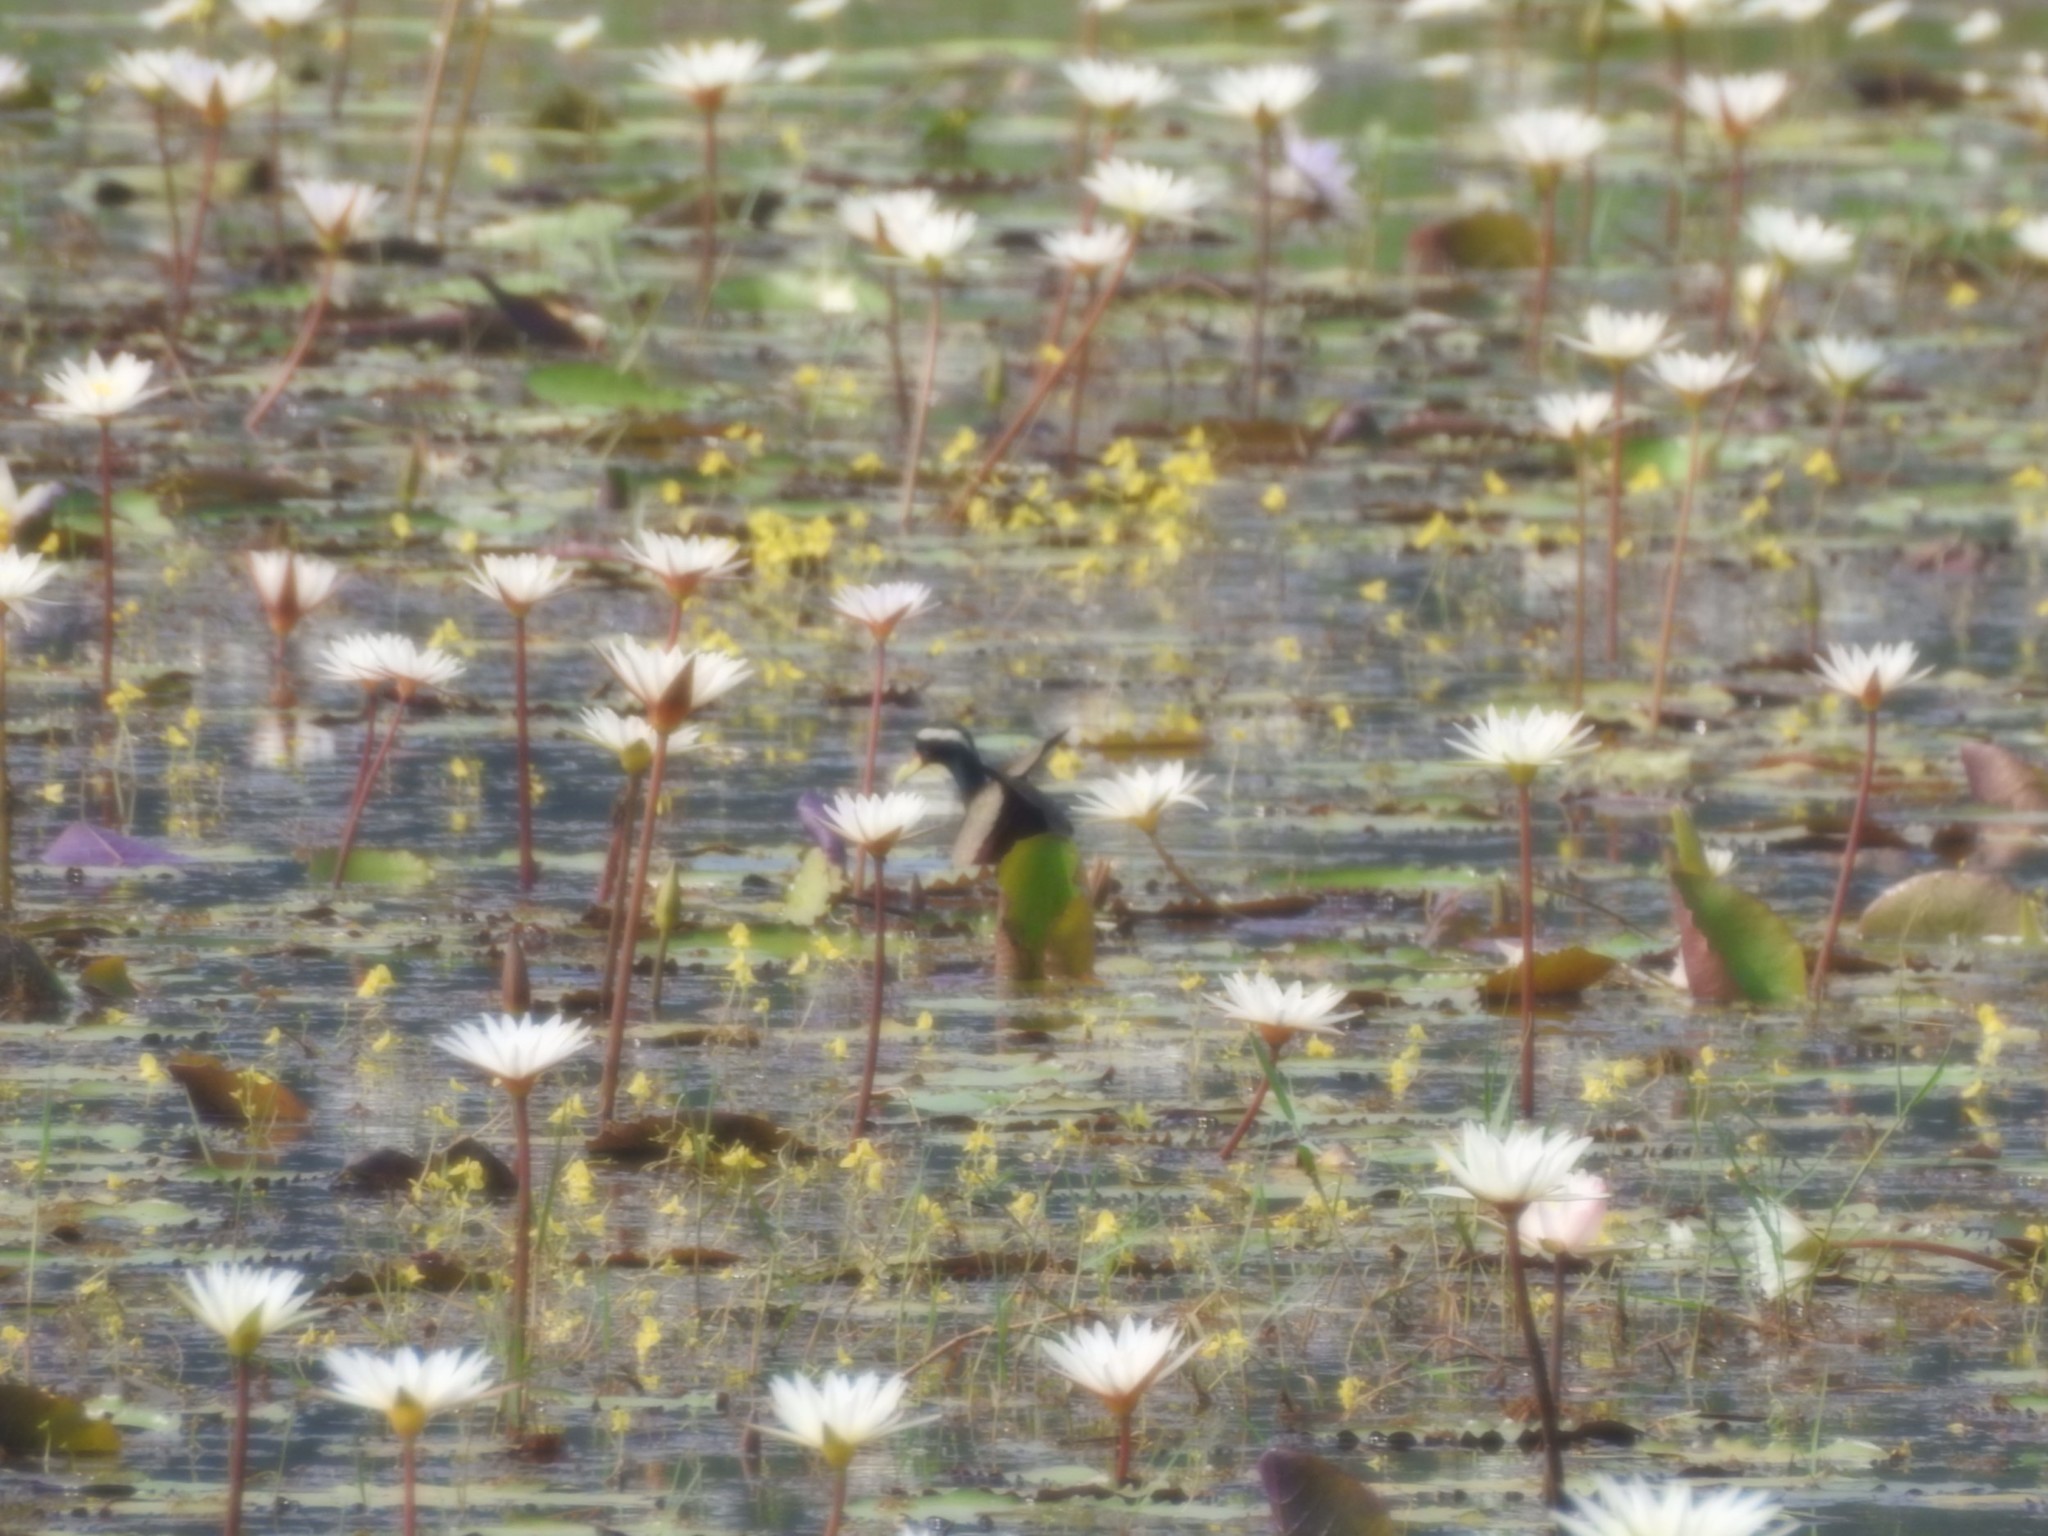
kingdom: Animalia
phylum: Chordata
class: Aves
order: Charadriiformes
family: Jacanidae
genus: Metopidius
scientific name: Metopidius indicus
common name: Bronze-winged jacana
